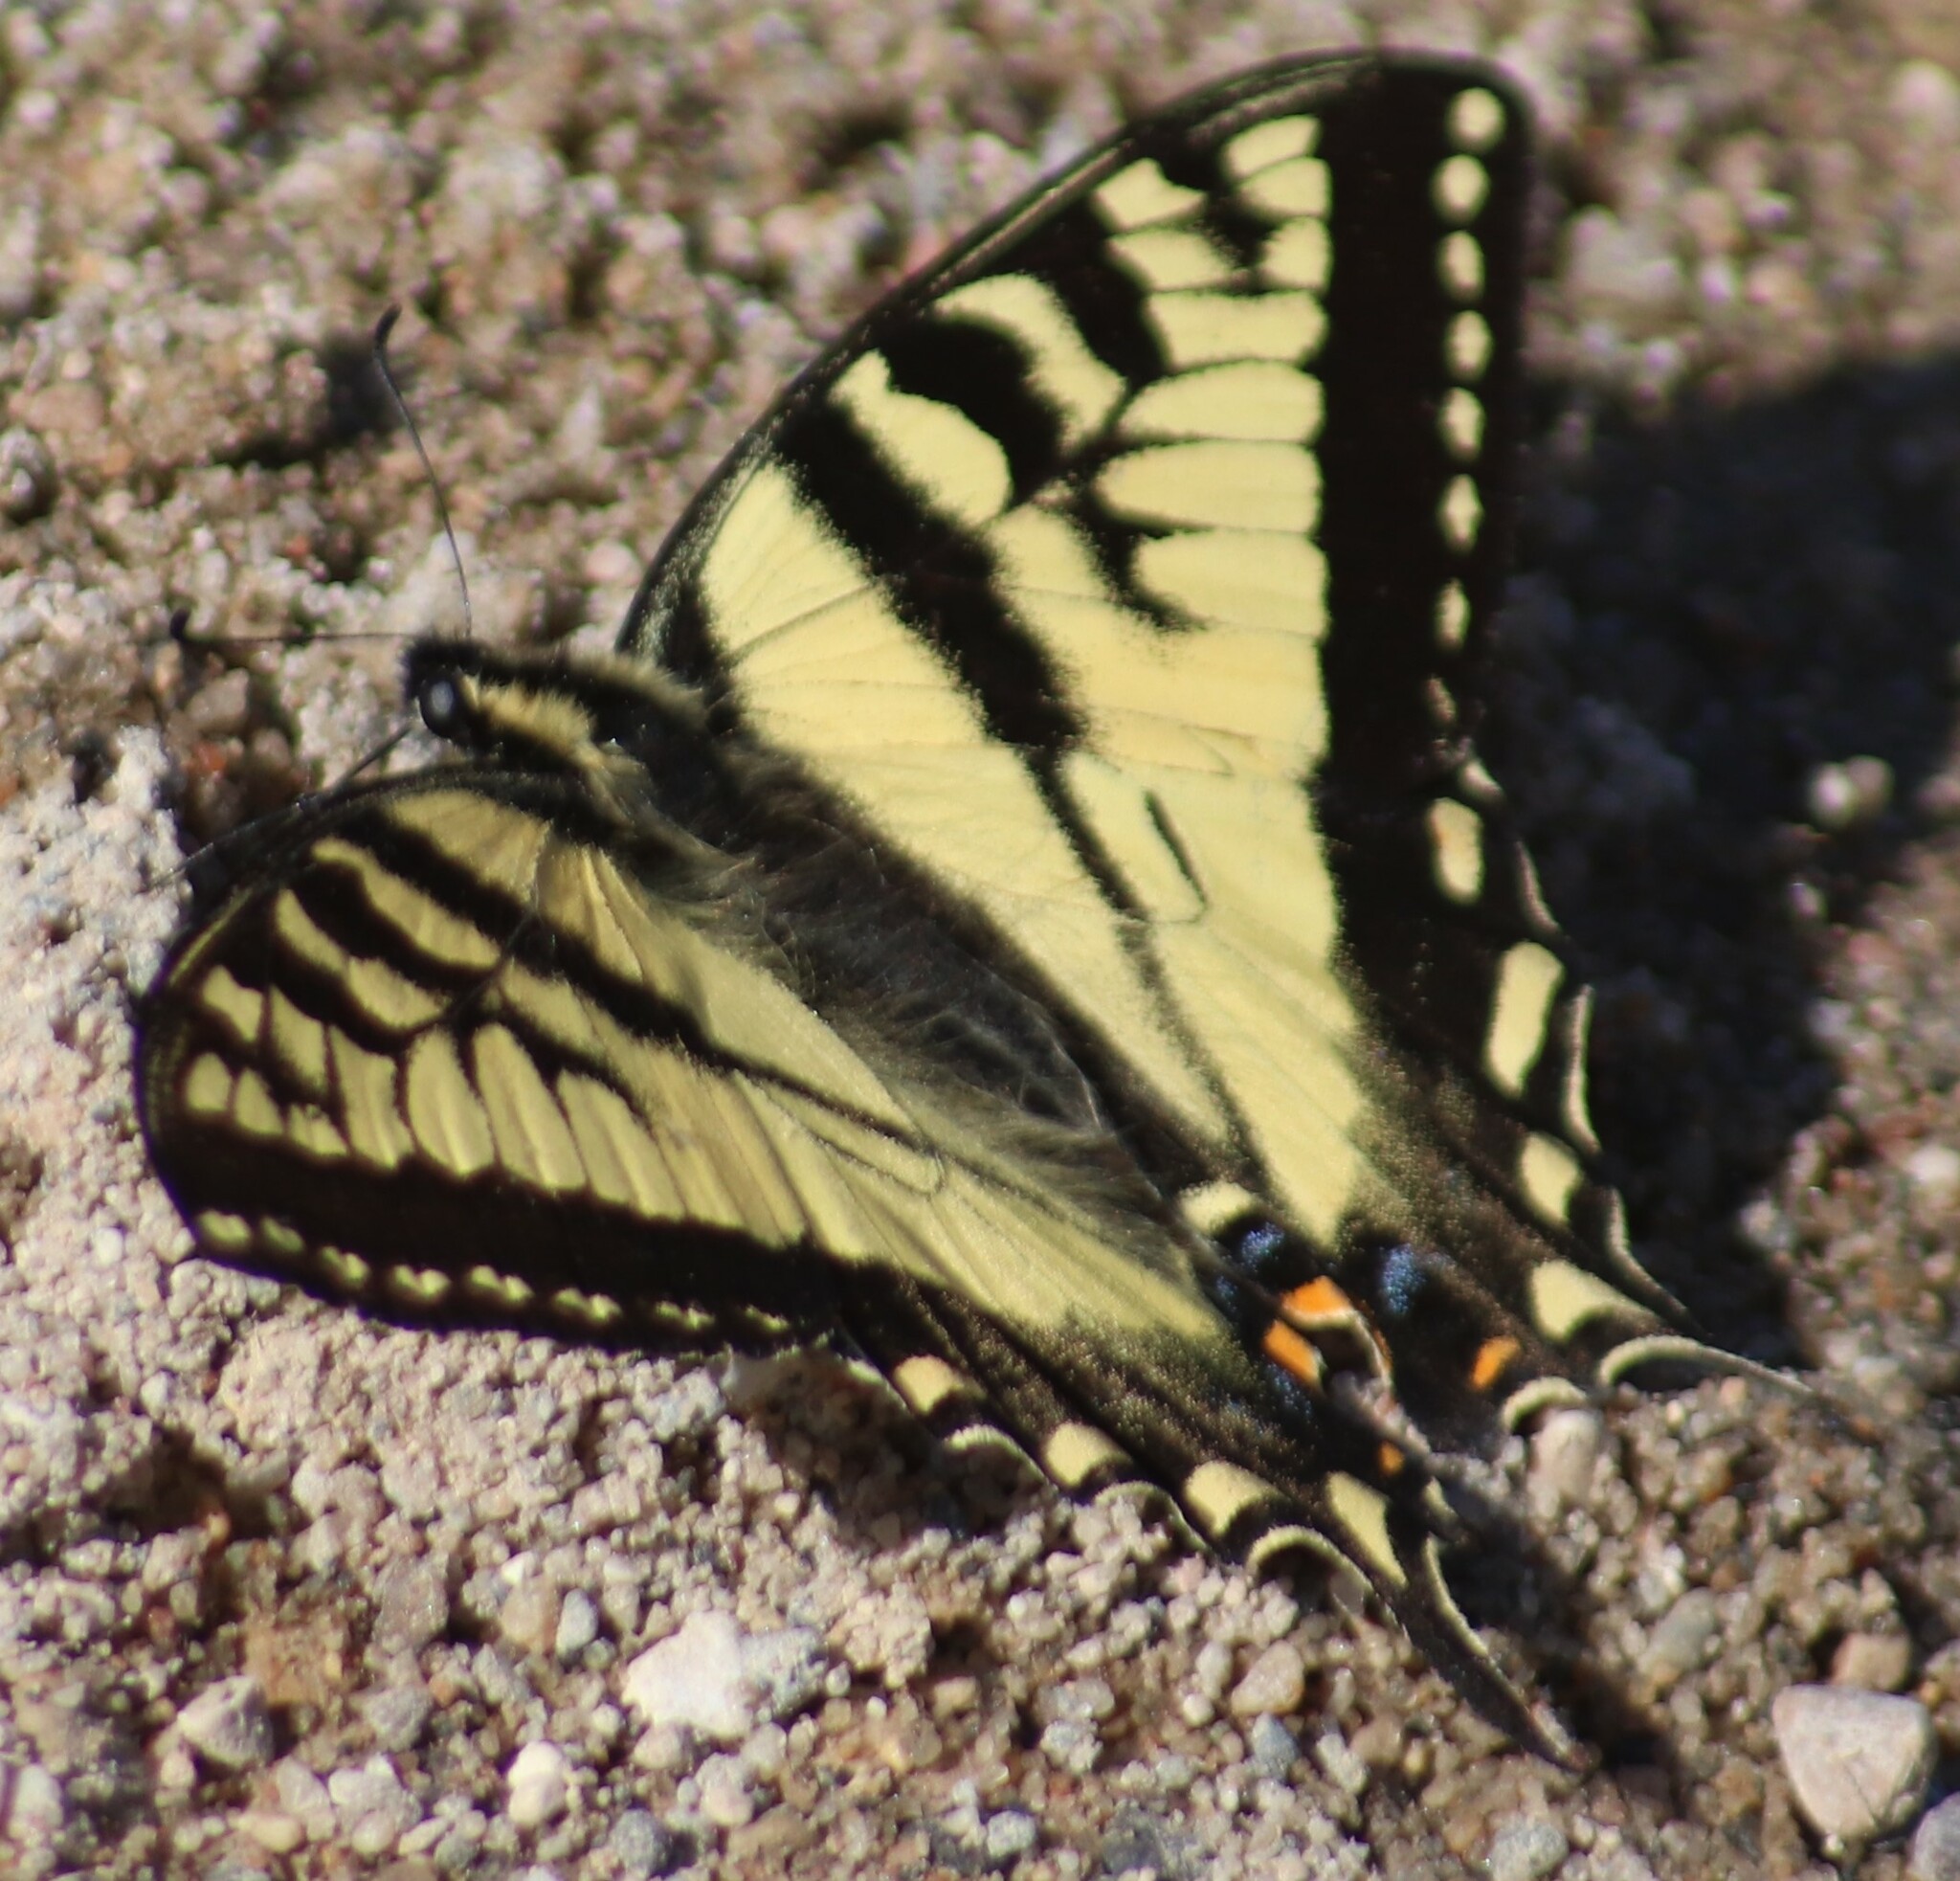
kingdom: Animalia
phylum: Arthropoda
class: Insecta
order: Lepidoptera
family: Papilionidae
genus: Papilio
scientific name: Papilio canadensis
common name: Canadian tiger swallowtail
